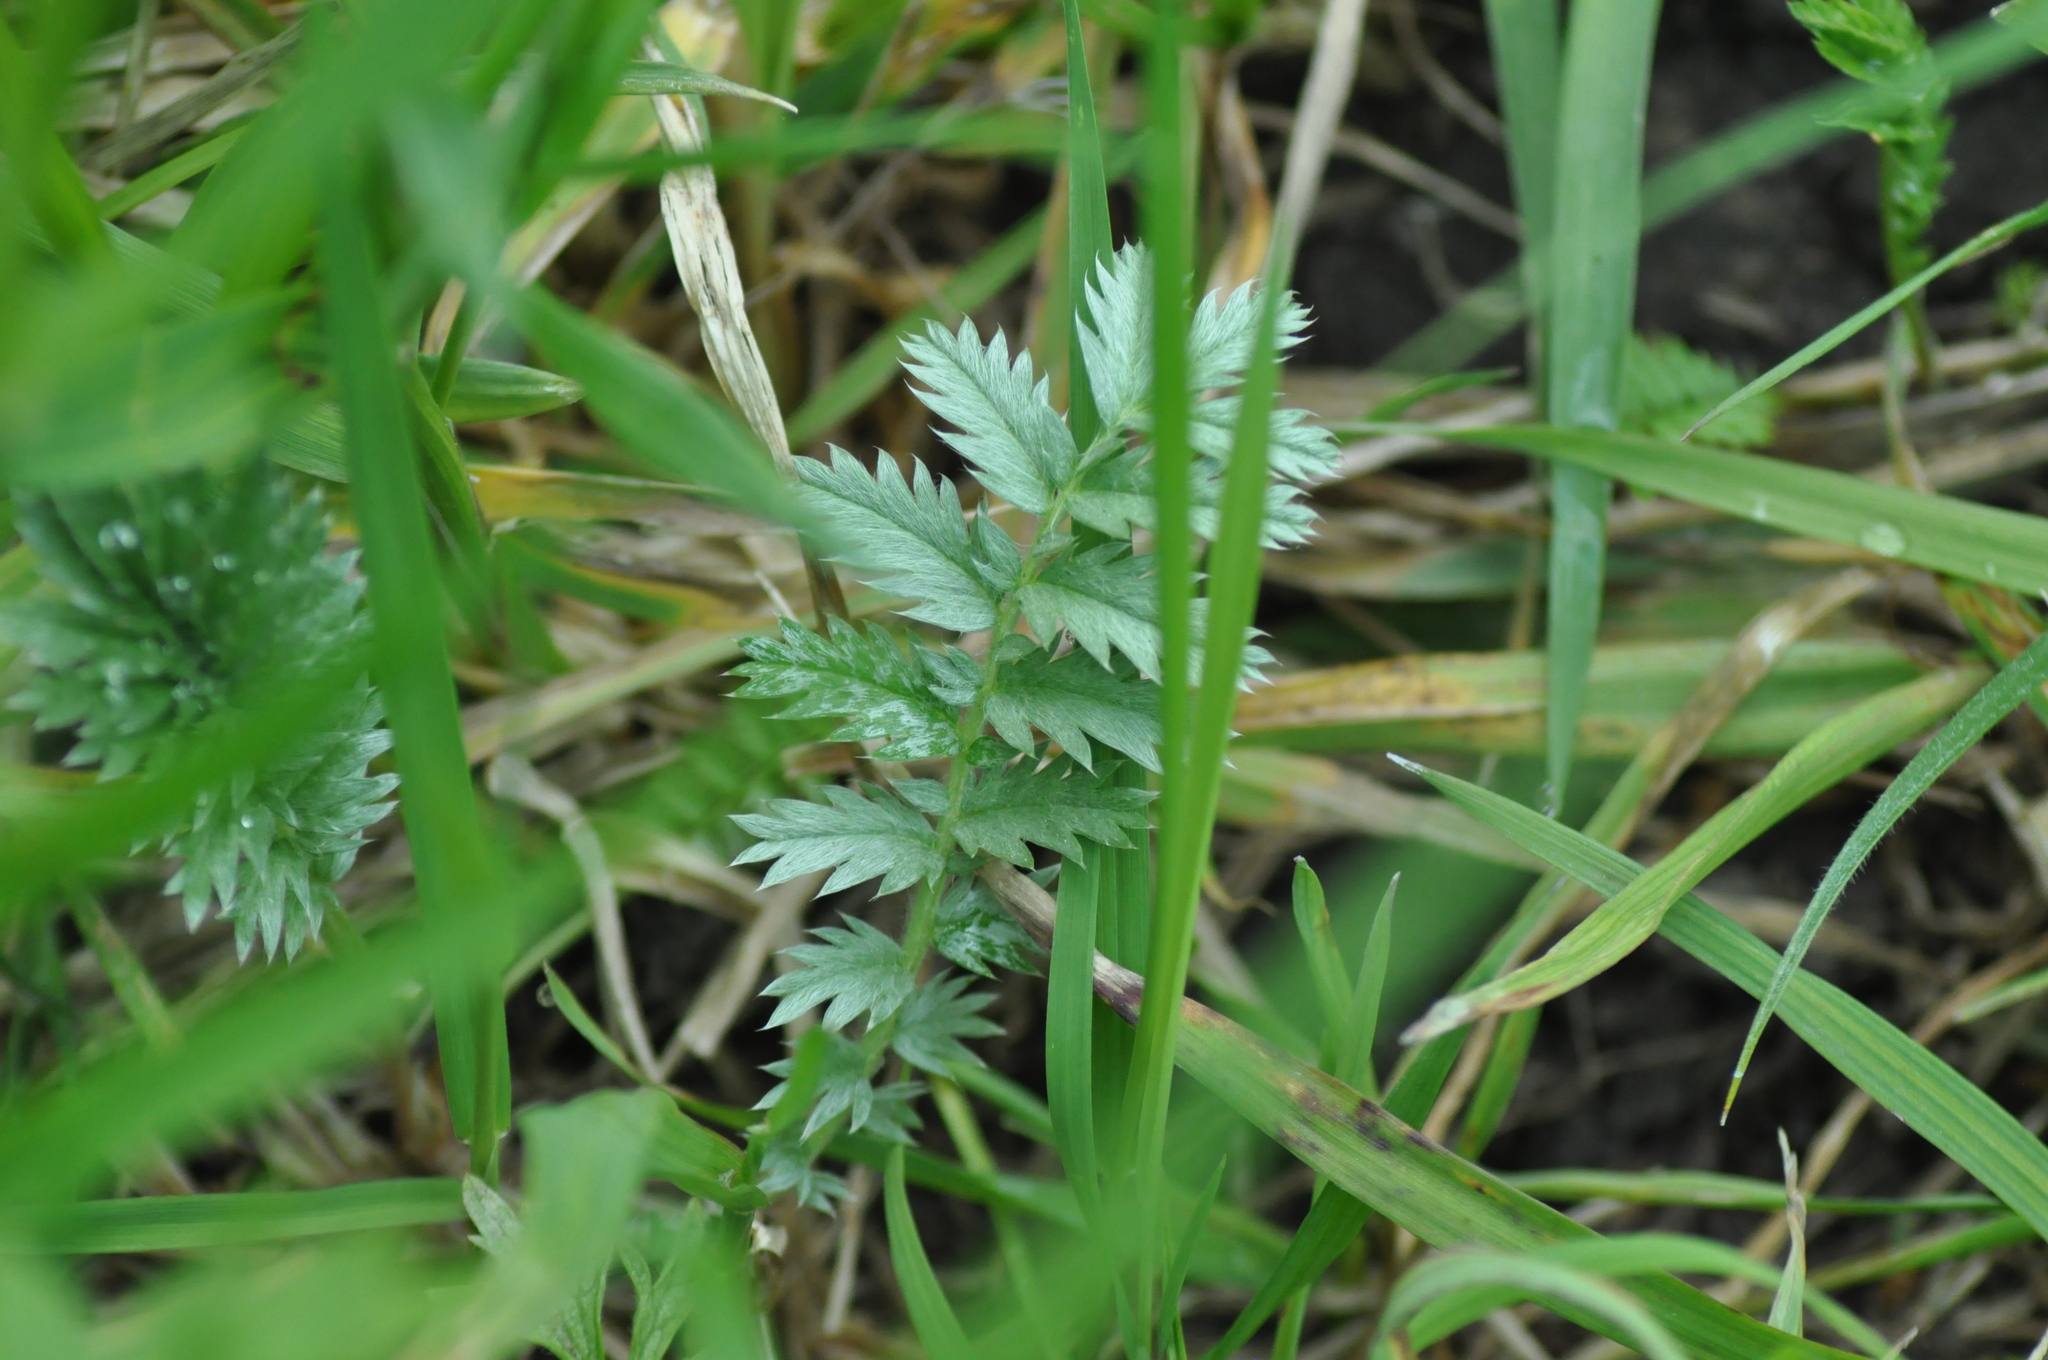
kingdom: Plantae
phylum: Tracheophyta
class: Magnoliopsida
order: Rosales
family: Rosaceae
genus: Argentina
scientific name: Argentina anserina
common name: Common silverweed
